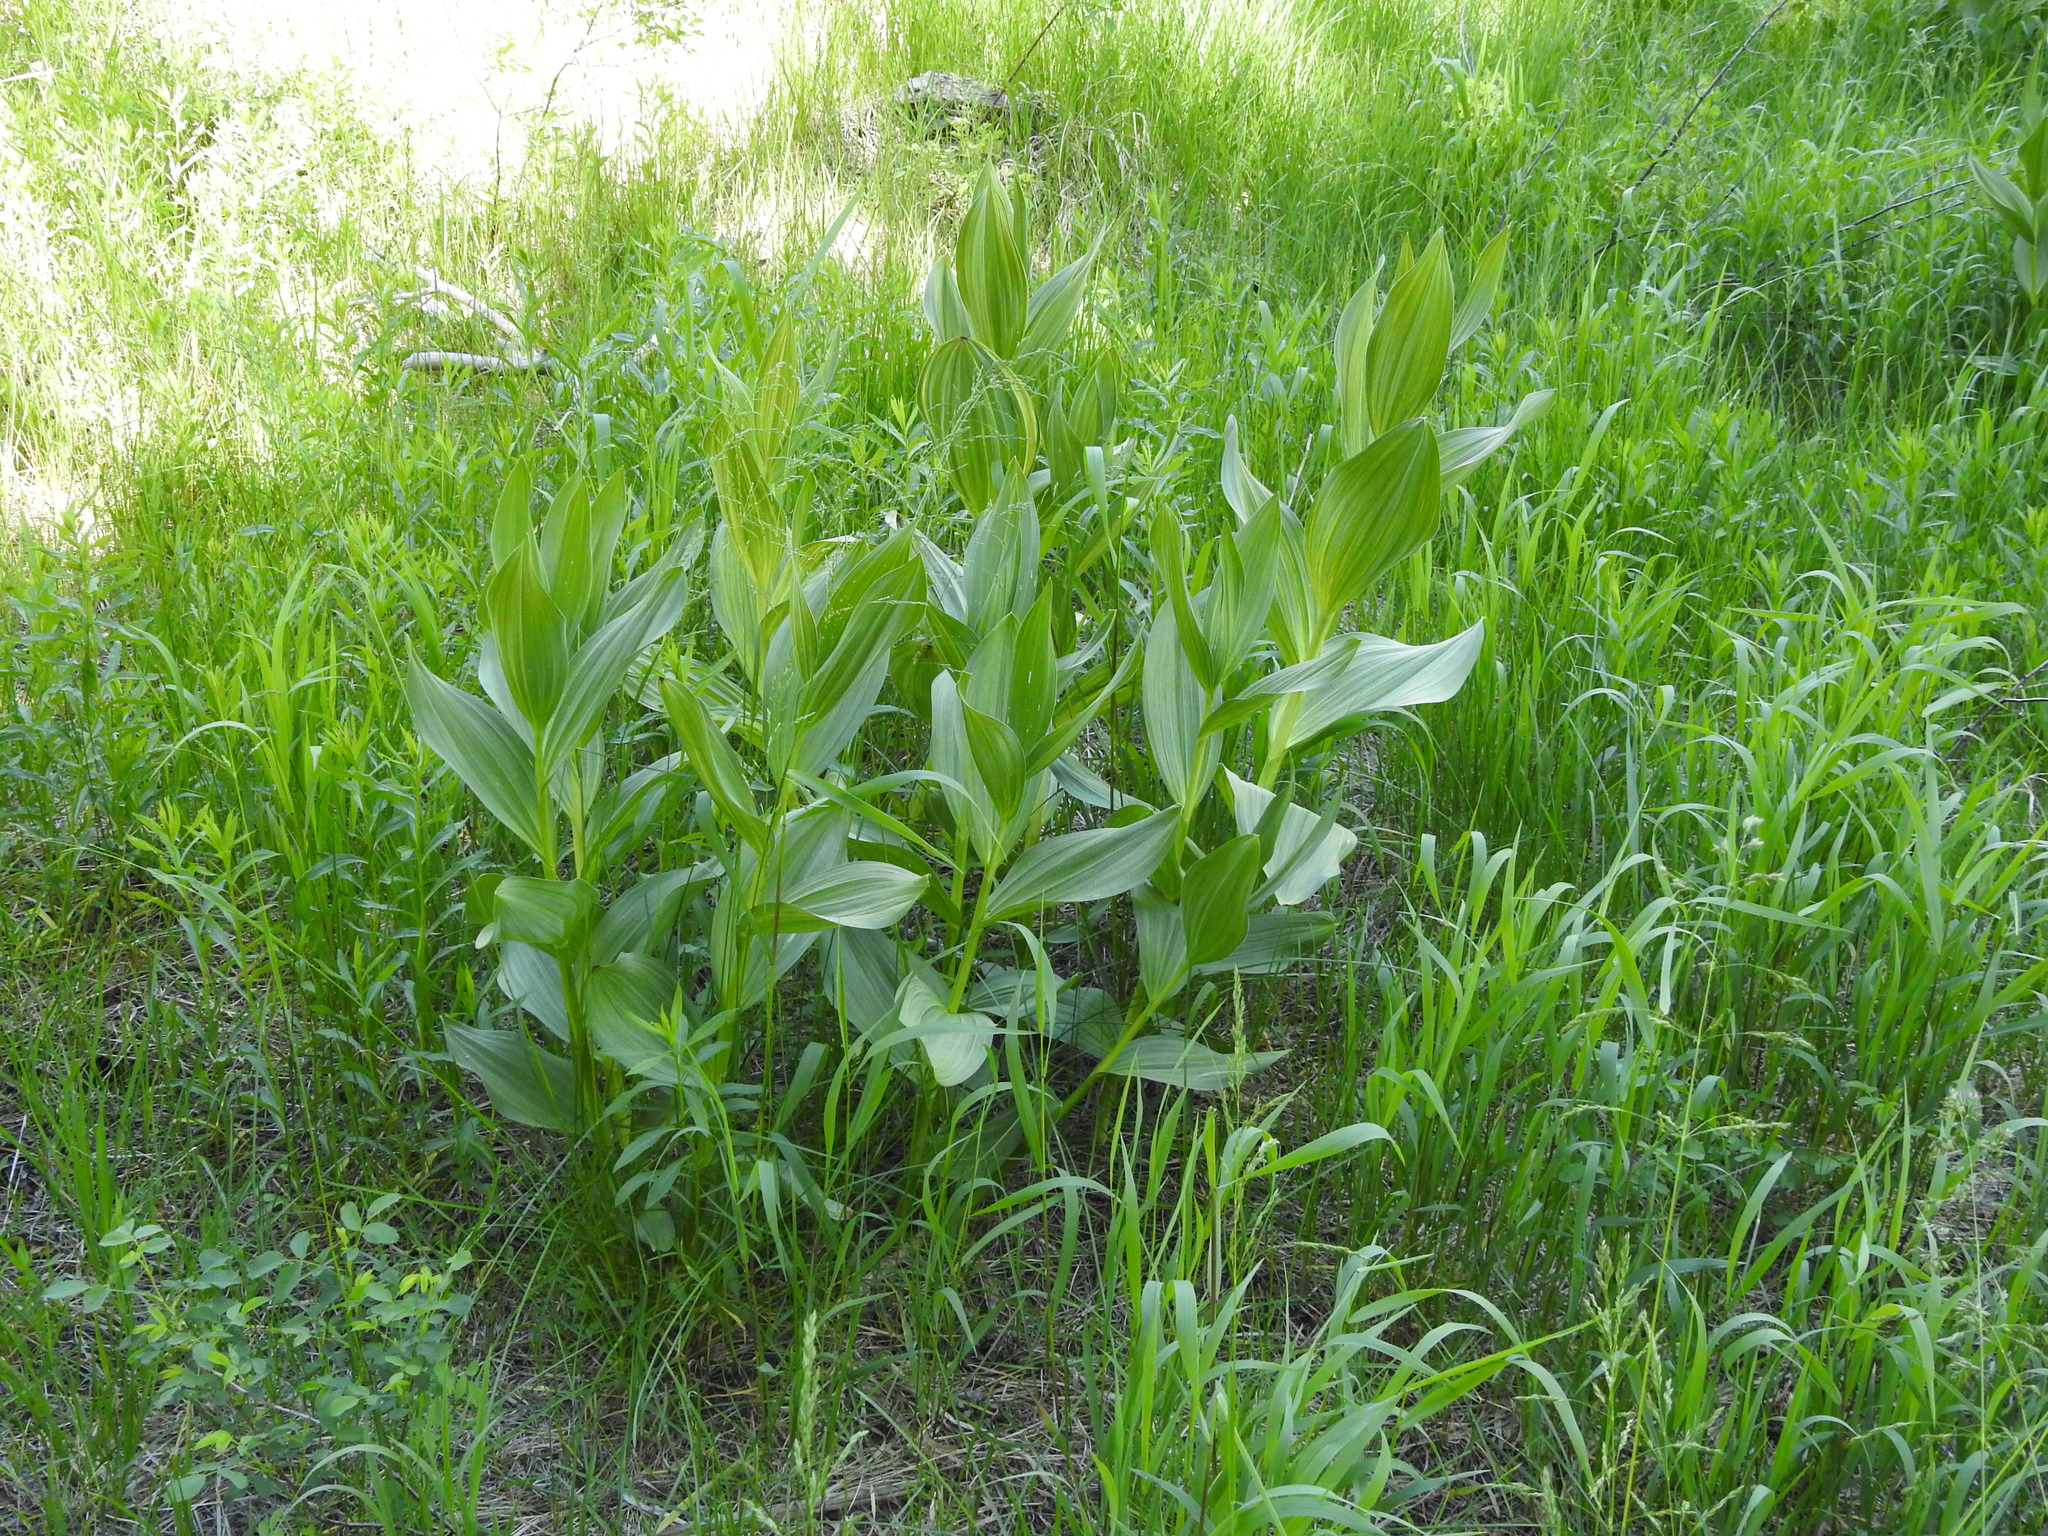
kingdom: Plantae
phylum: Tracheophyta
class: Liliopsida
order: Liliales
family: Melanthiaceae
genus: Veratrum
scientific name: Veratrum californicum
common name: California veratrum
